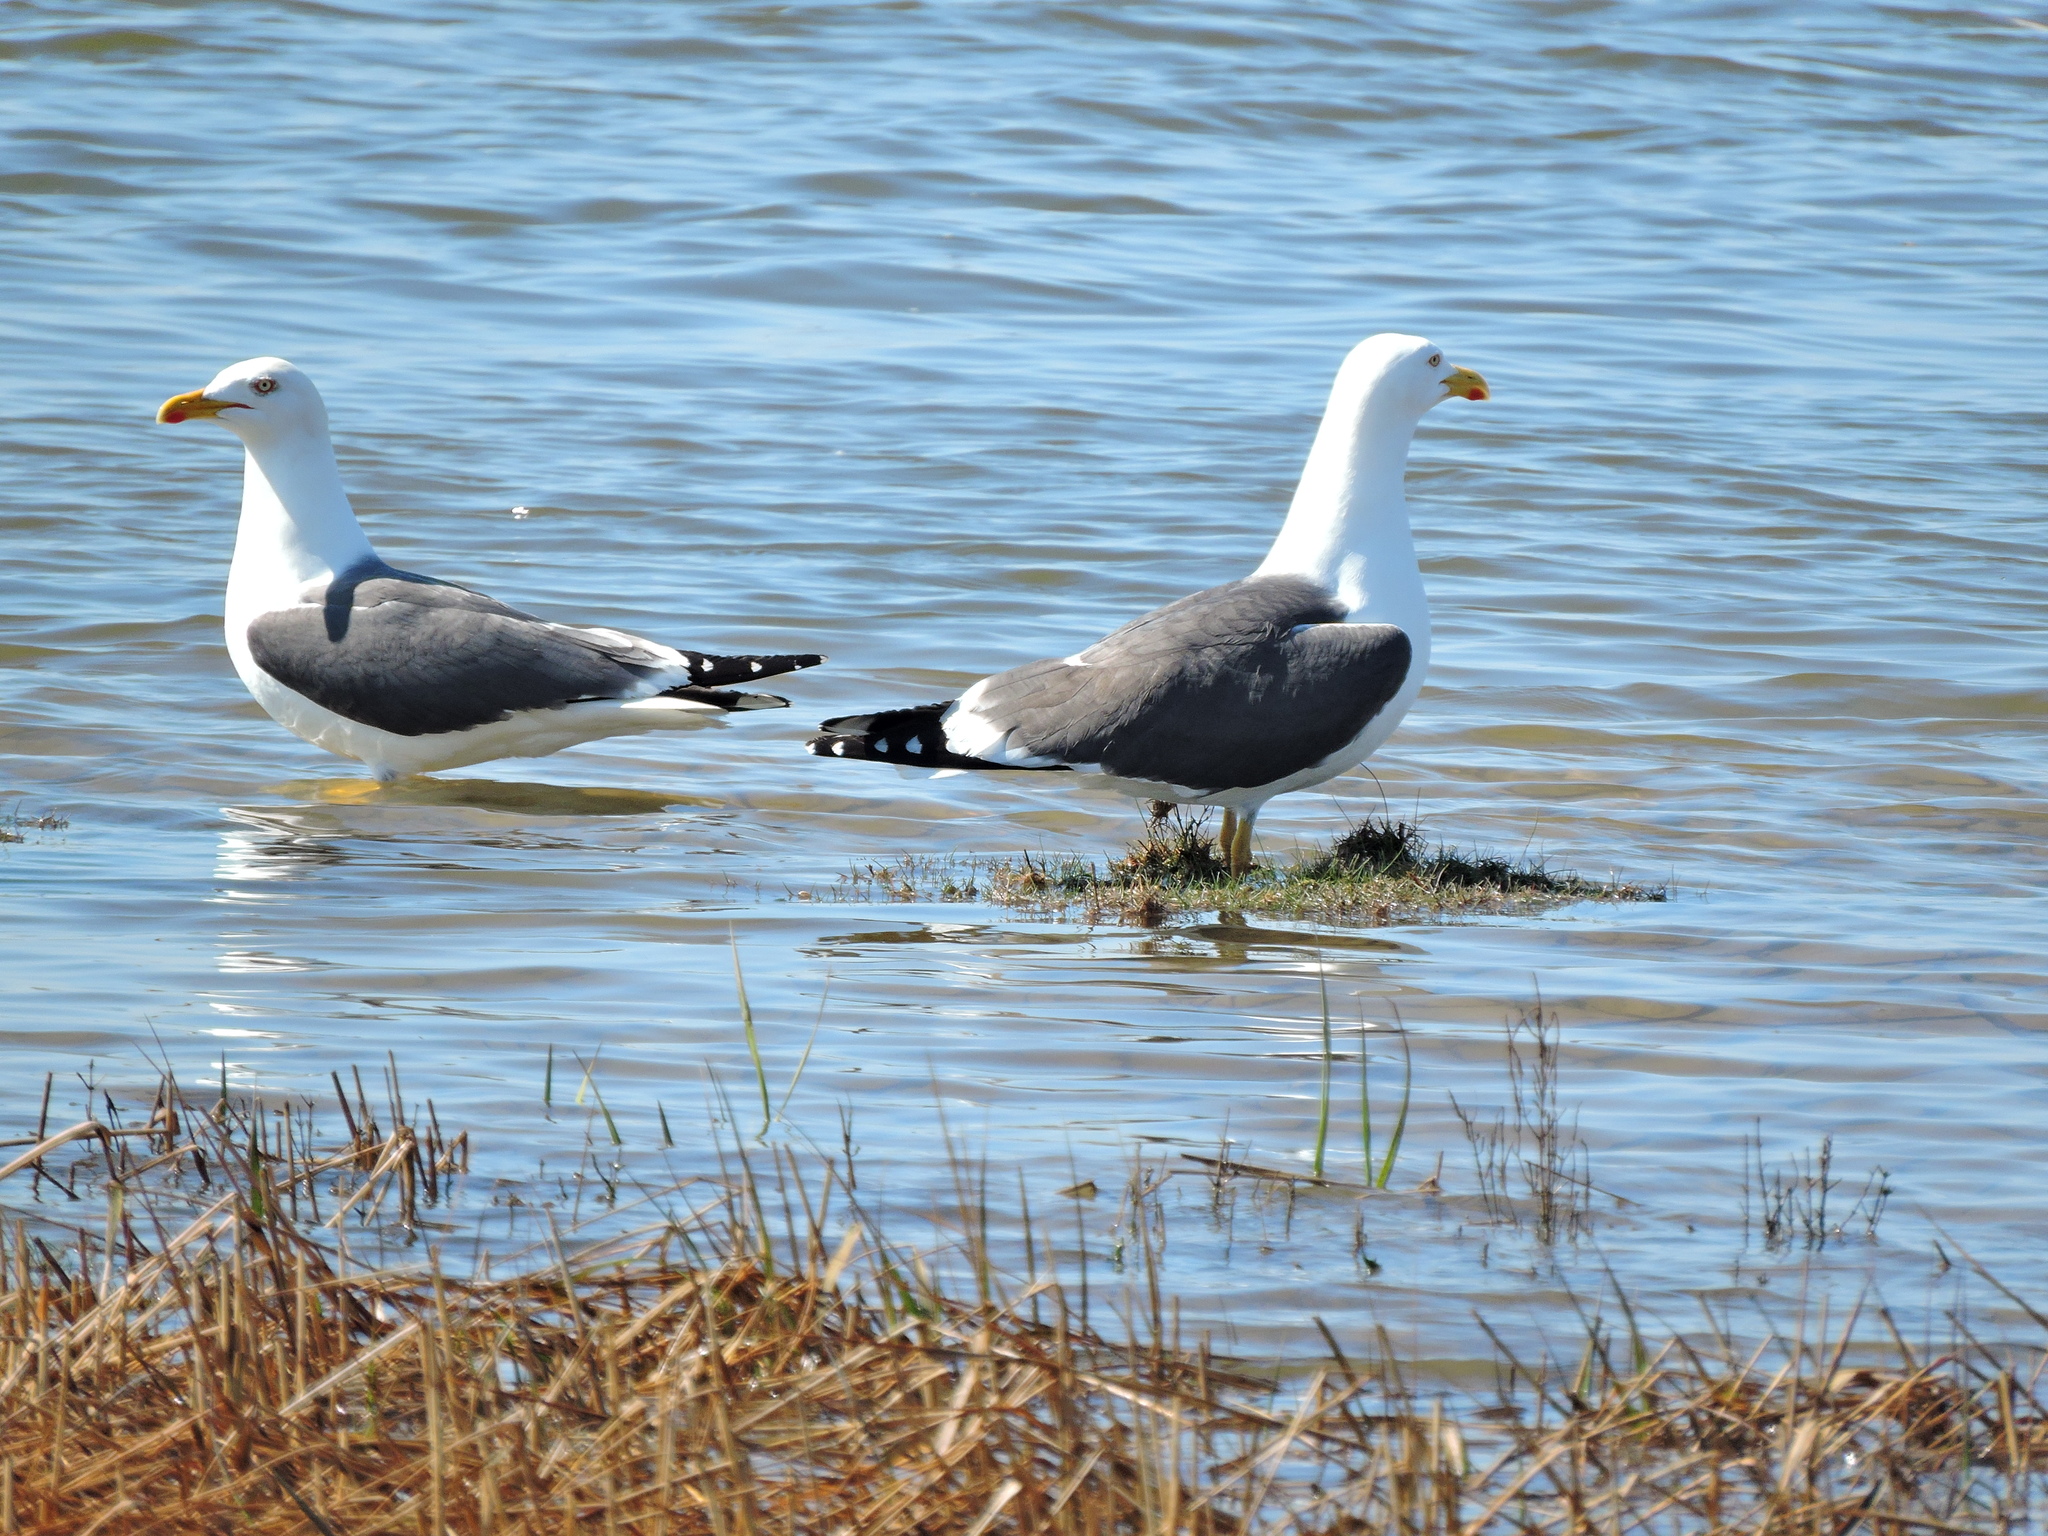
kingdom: Animalia
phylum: Chordata
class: Aves
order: Charadriiformes
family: Laridae
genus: Larus
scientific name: Larus fuscus
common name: Lesser black-backed gull
